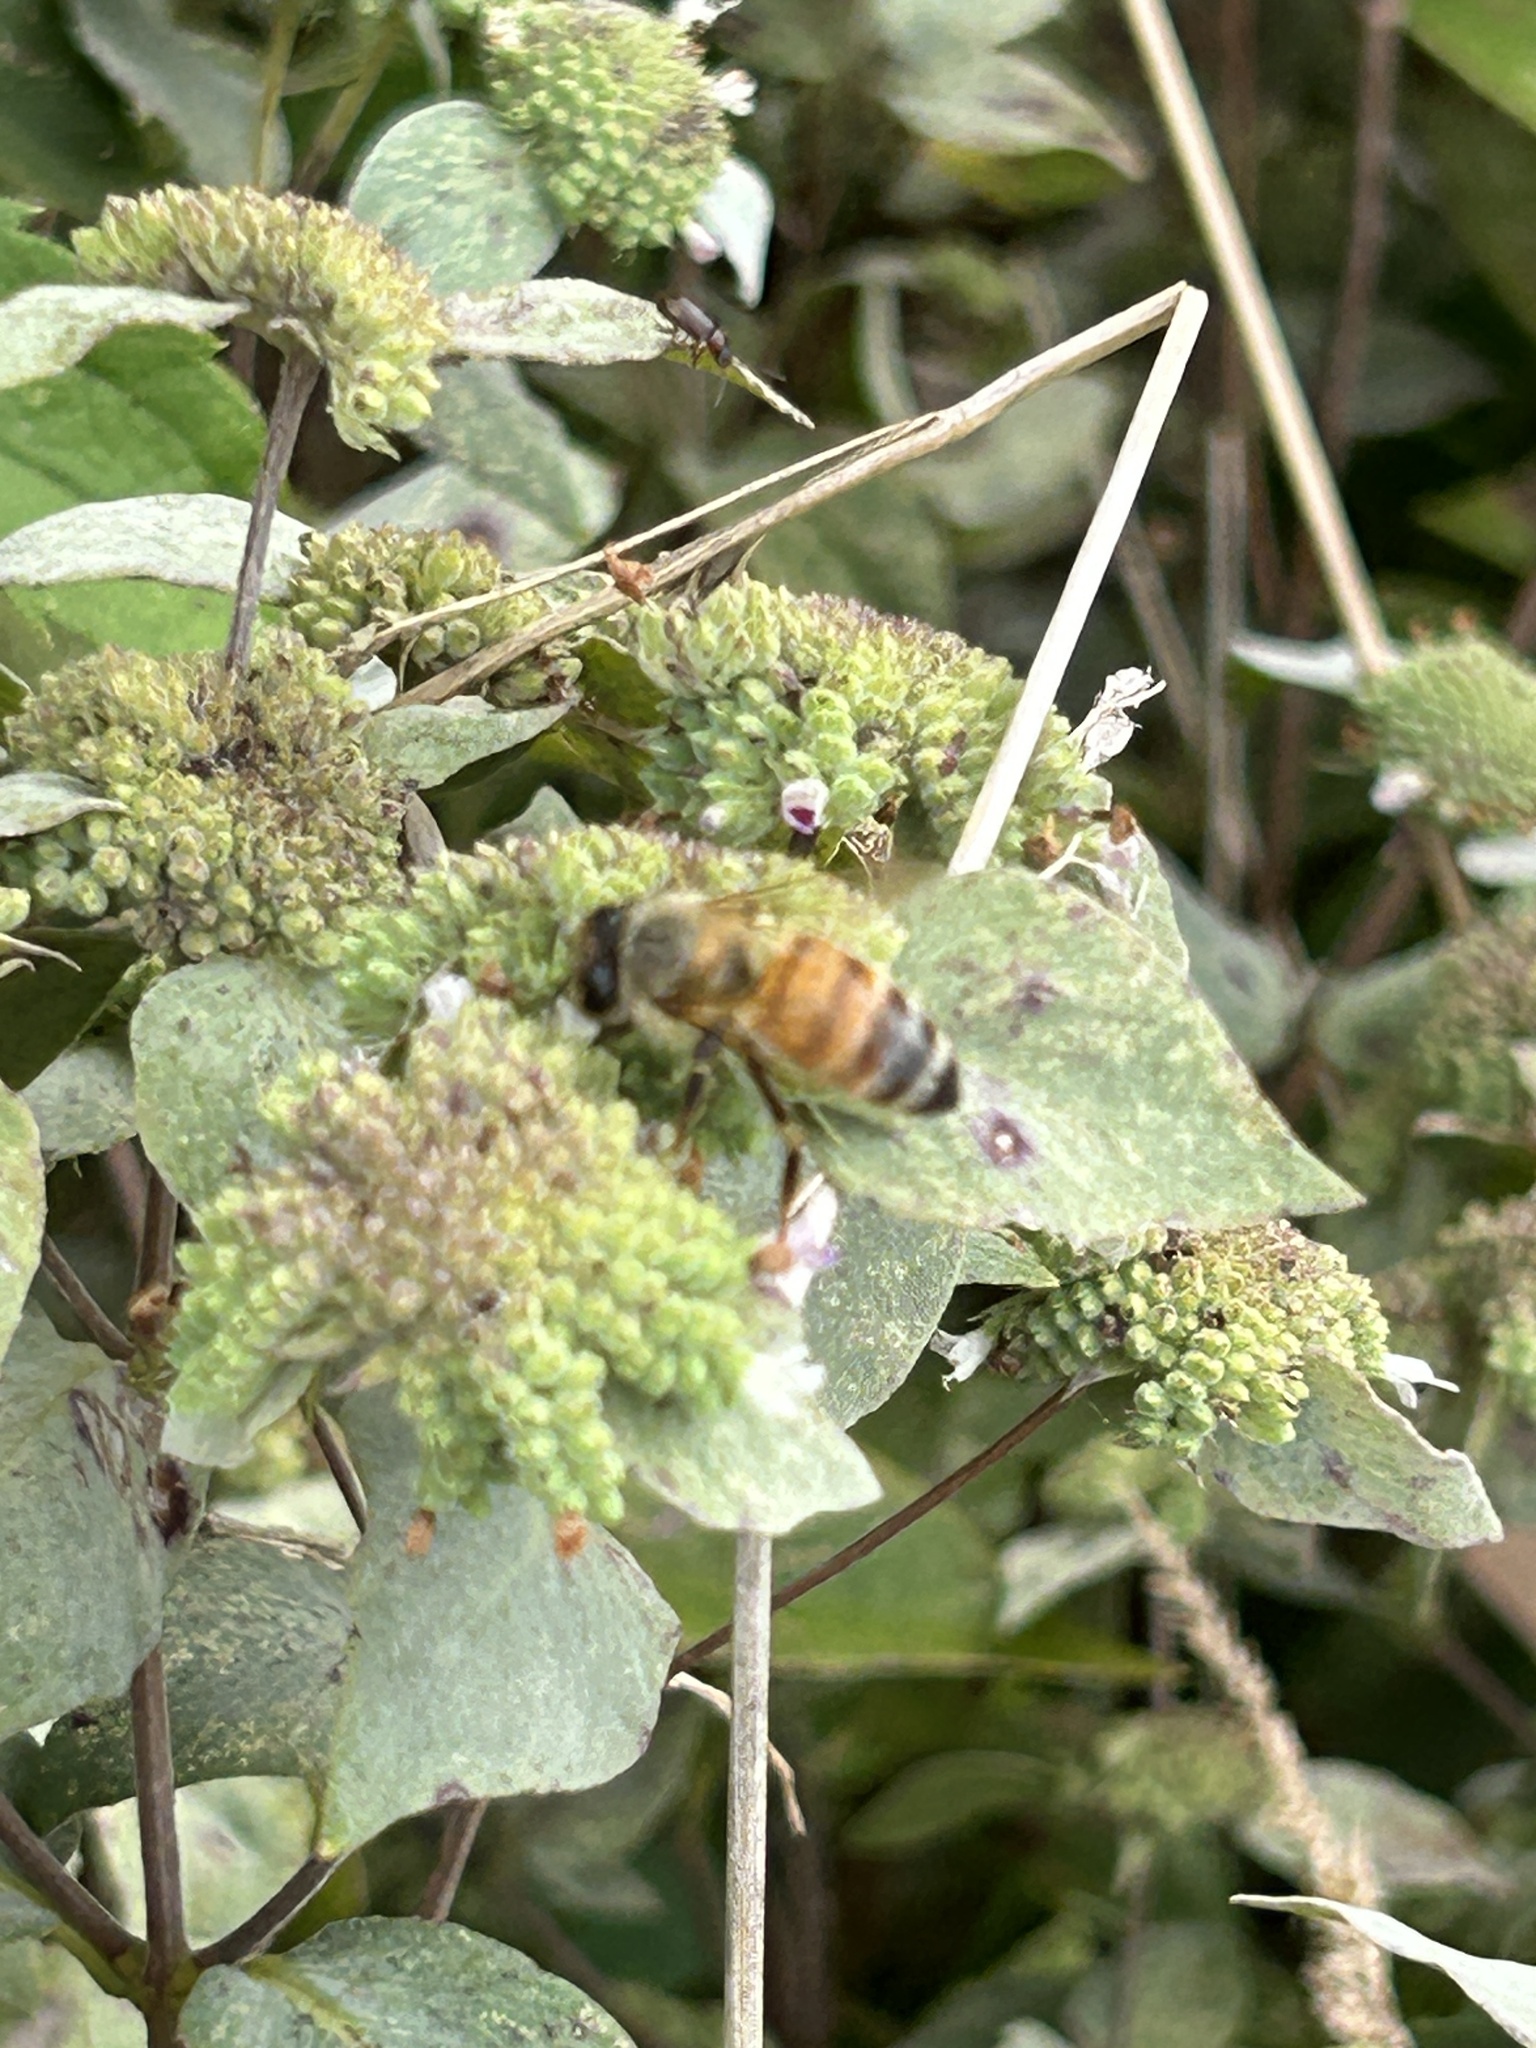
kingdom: Animalia
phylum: Arthropoda
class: Insecta
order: Hymenoptera
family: Apidae
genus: Apis
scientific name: Apis mellifera
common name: Honey bee
